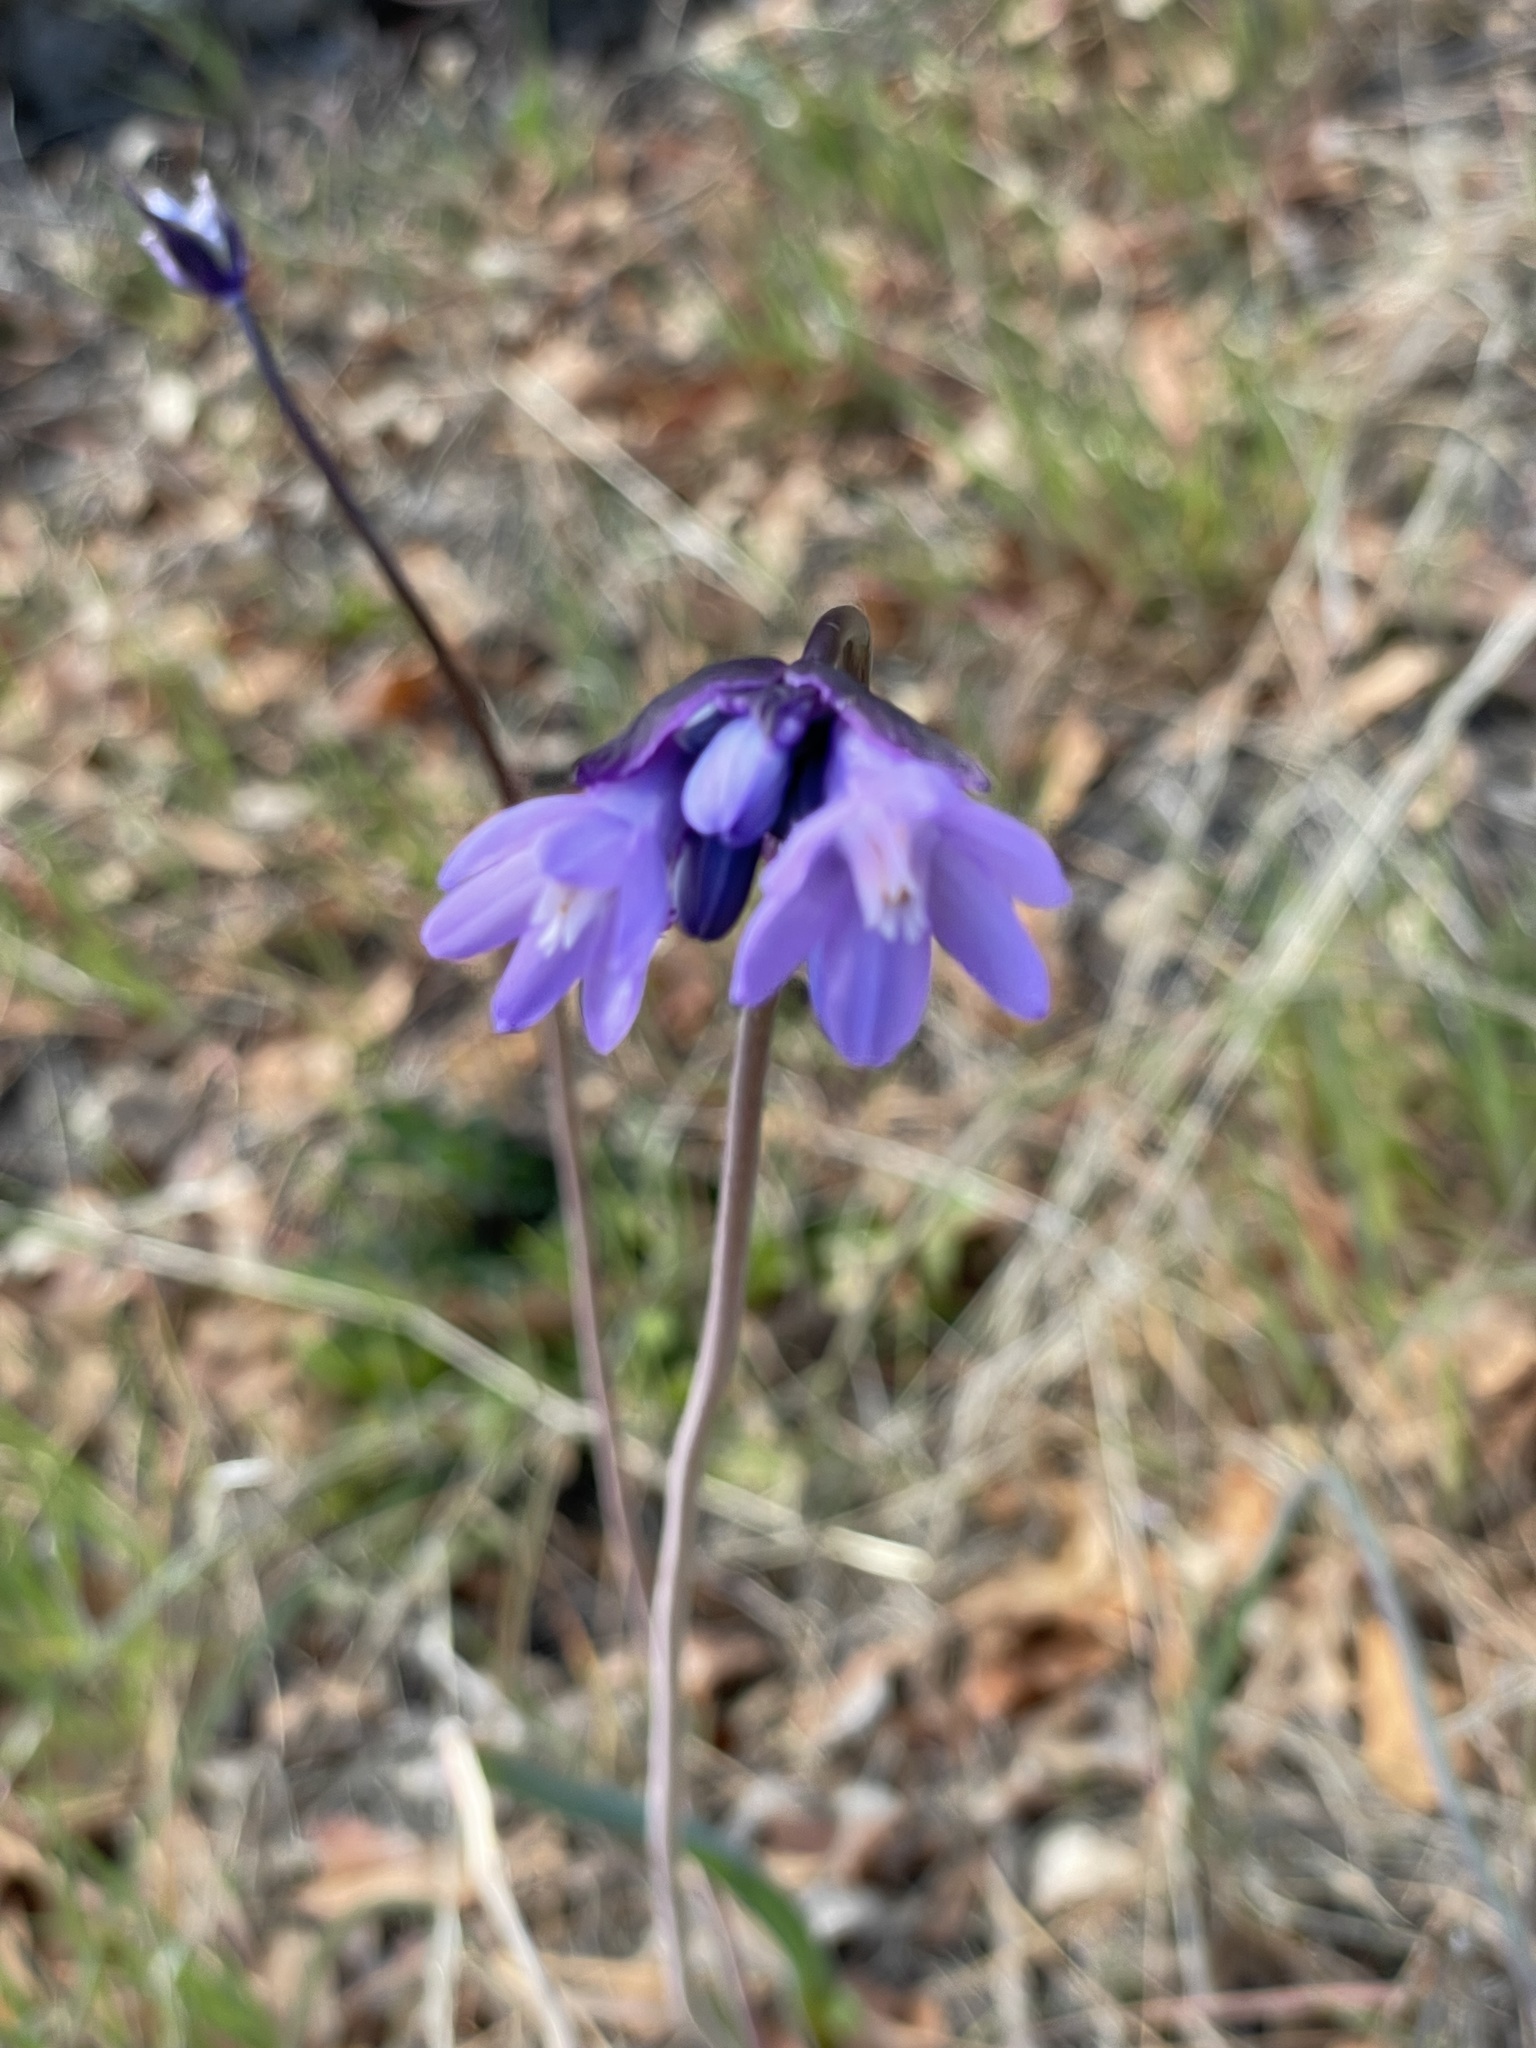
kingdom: Plantae
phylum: Tracheophyta
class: Liliopsida
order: Asparagales
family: Asparagaceae
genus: Dipterostemon
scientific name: Dipterostemon capitatus
